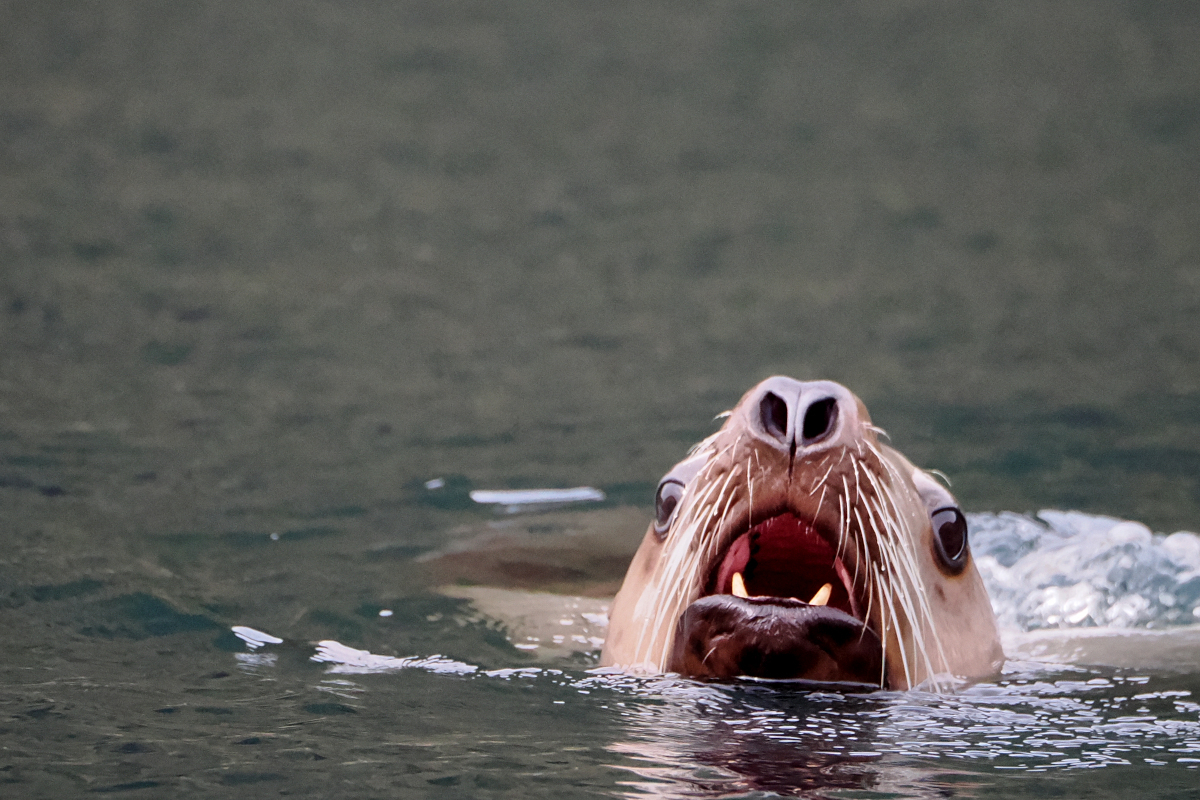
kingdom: Animalia
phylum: Chordata
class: Mammalia
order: Carnivora
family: Otariidae
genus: Eumetopias
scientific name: Eumetopias jubatus
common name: Steller sea lion
